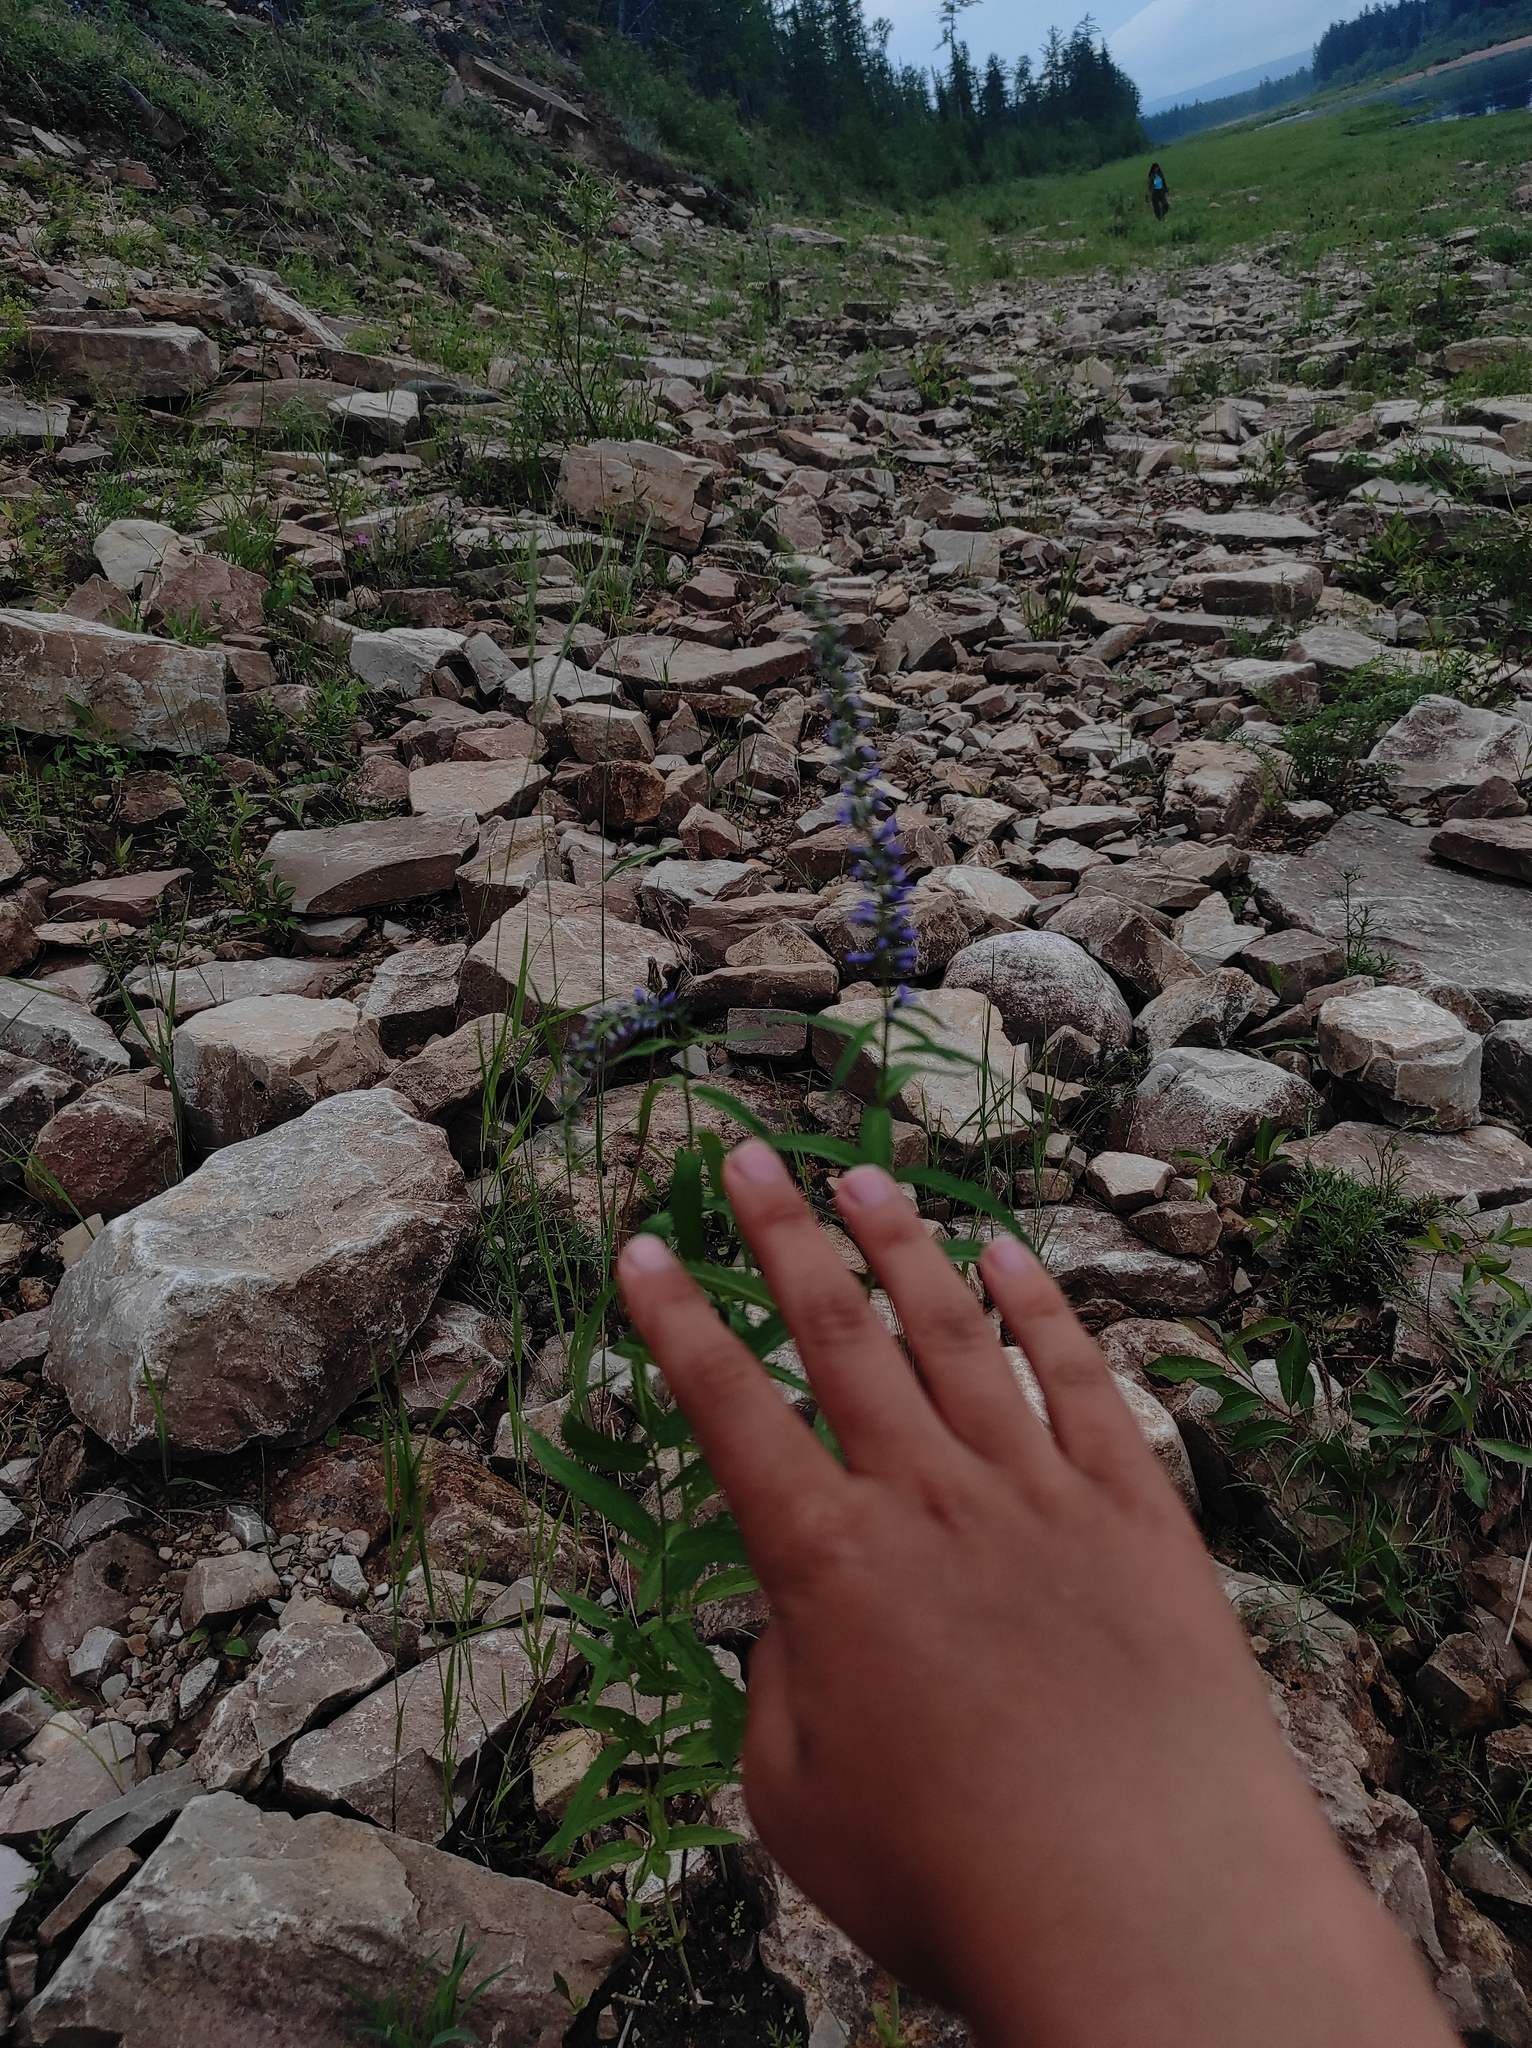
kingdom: Plantae
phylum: Tracheophyta
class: Magnoliopsida
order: Lamiales
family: Plantaginaceae
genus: Veronica
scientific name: Veronica longifolia
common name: Garden speedwell
